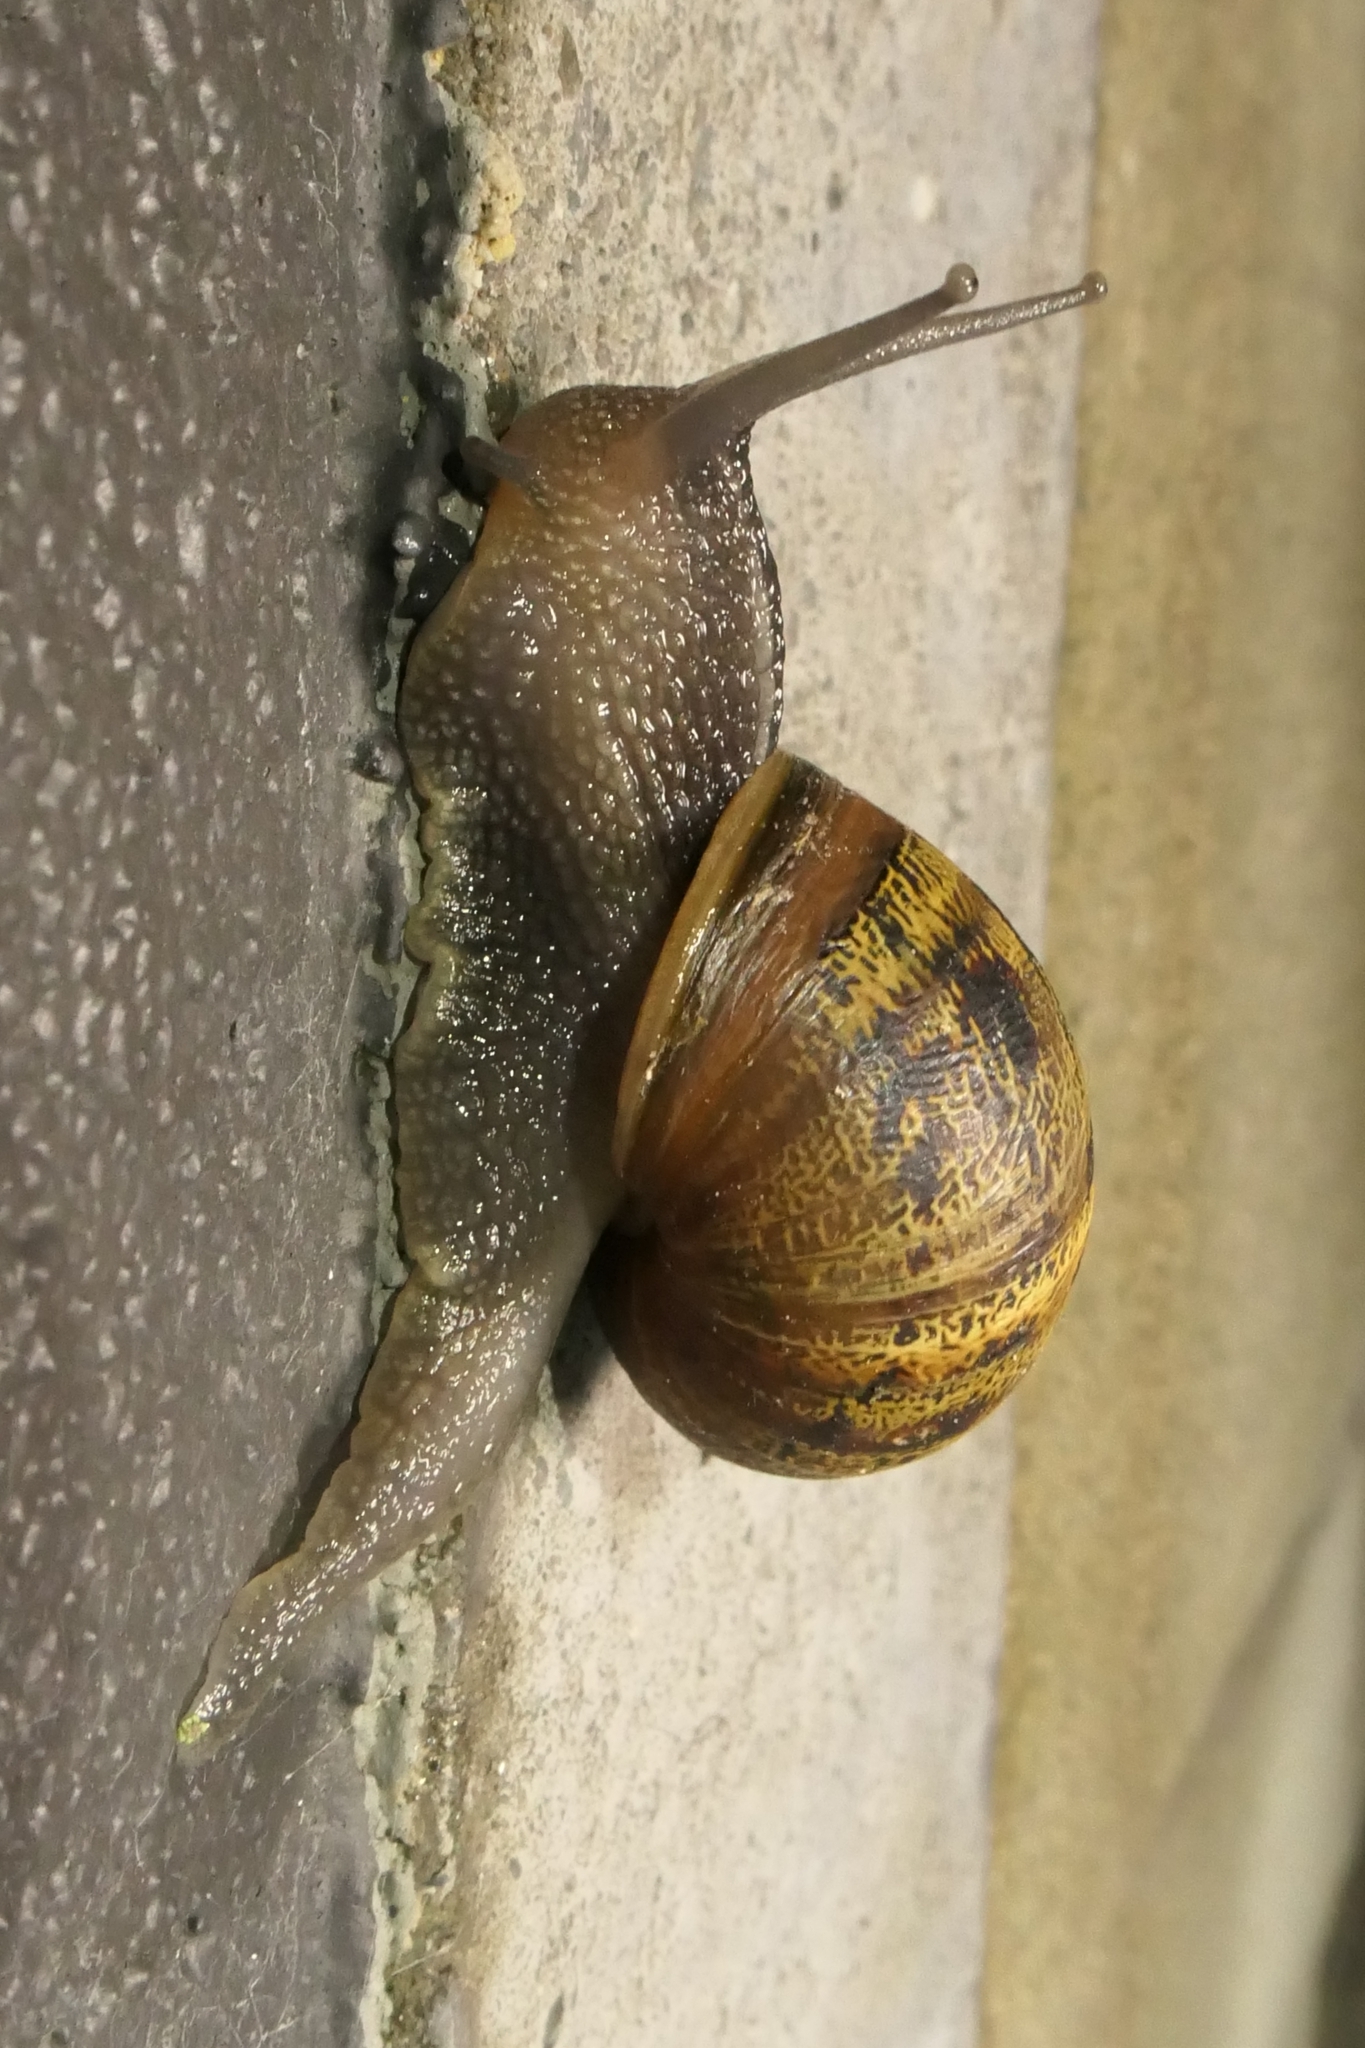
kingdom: Animalia
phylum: Mollusca
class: Gastropoda
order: Stylommatophora
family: Helicidae
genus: Cornu
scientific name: Cornu aspersum
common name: Brown garden snail
